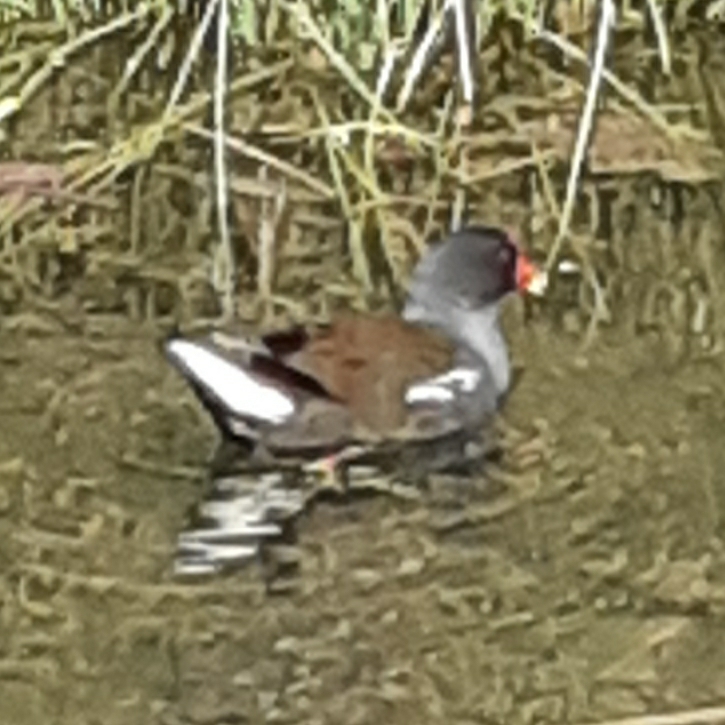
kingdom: Animalia
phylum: Chordata
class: Aves
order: Gruiformes
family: Rallidae
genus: Gallinula
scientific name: Gallinula chloropus
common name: Common moorhen
